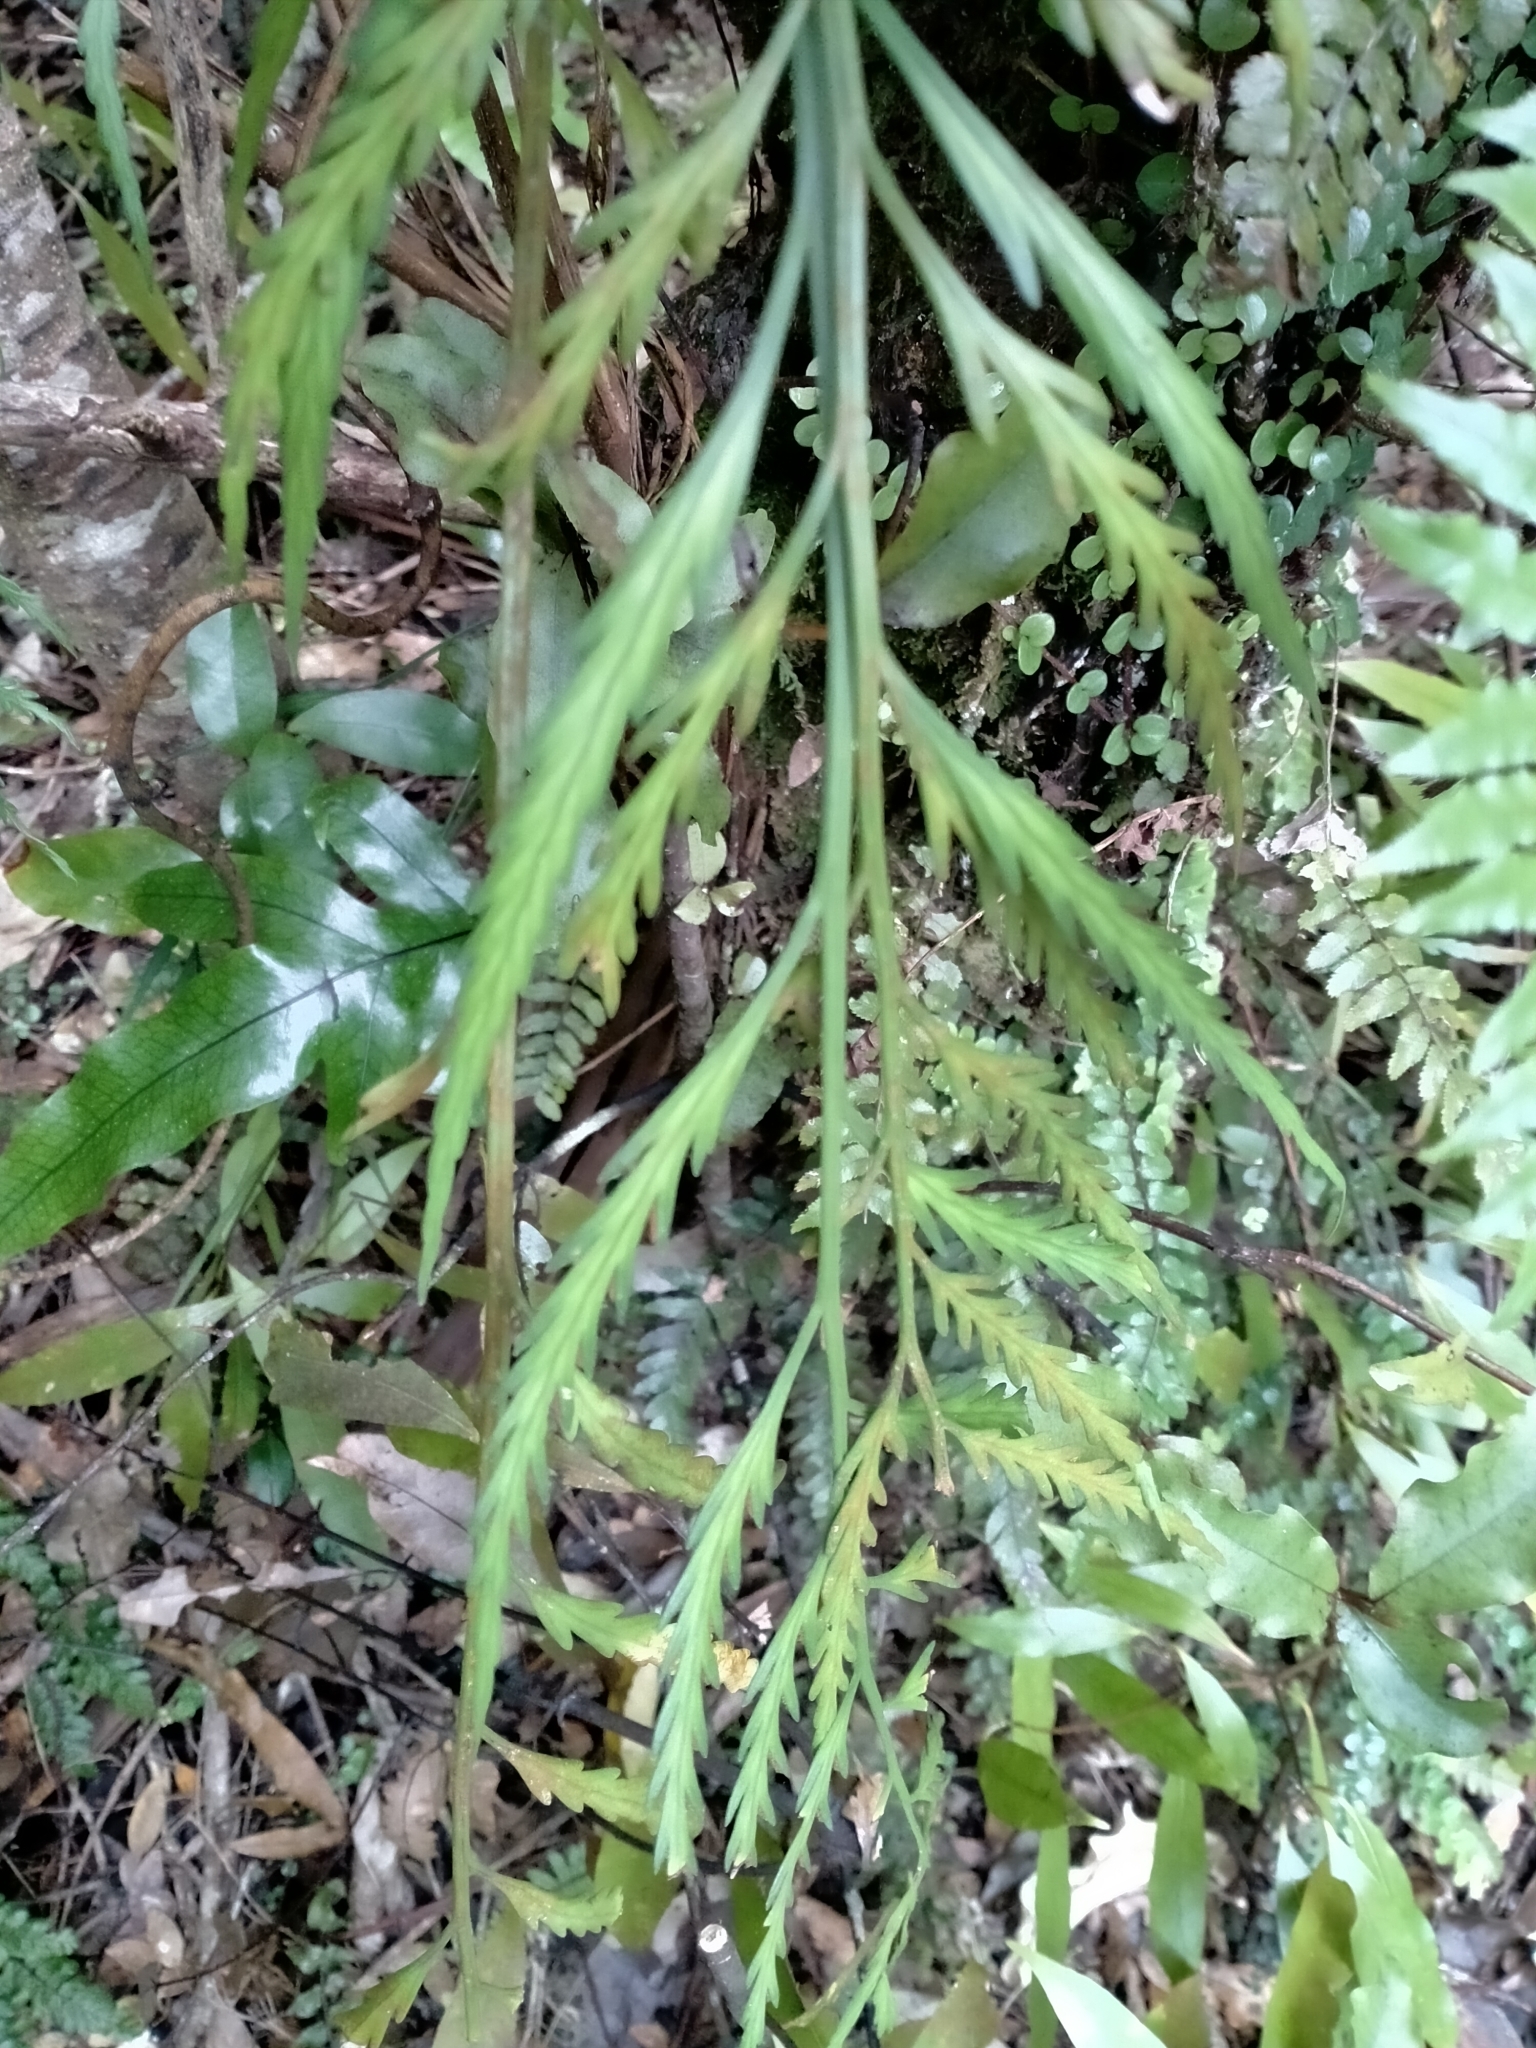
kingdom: Plantae
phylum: Tracheophyta
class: Polypodiopsida
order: Polypodiales
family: Aspleniaceae
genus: Asplenium
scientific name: Asplenium flaccidum
